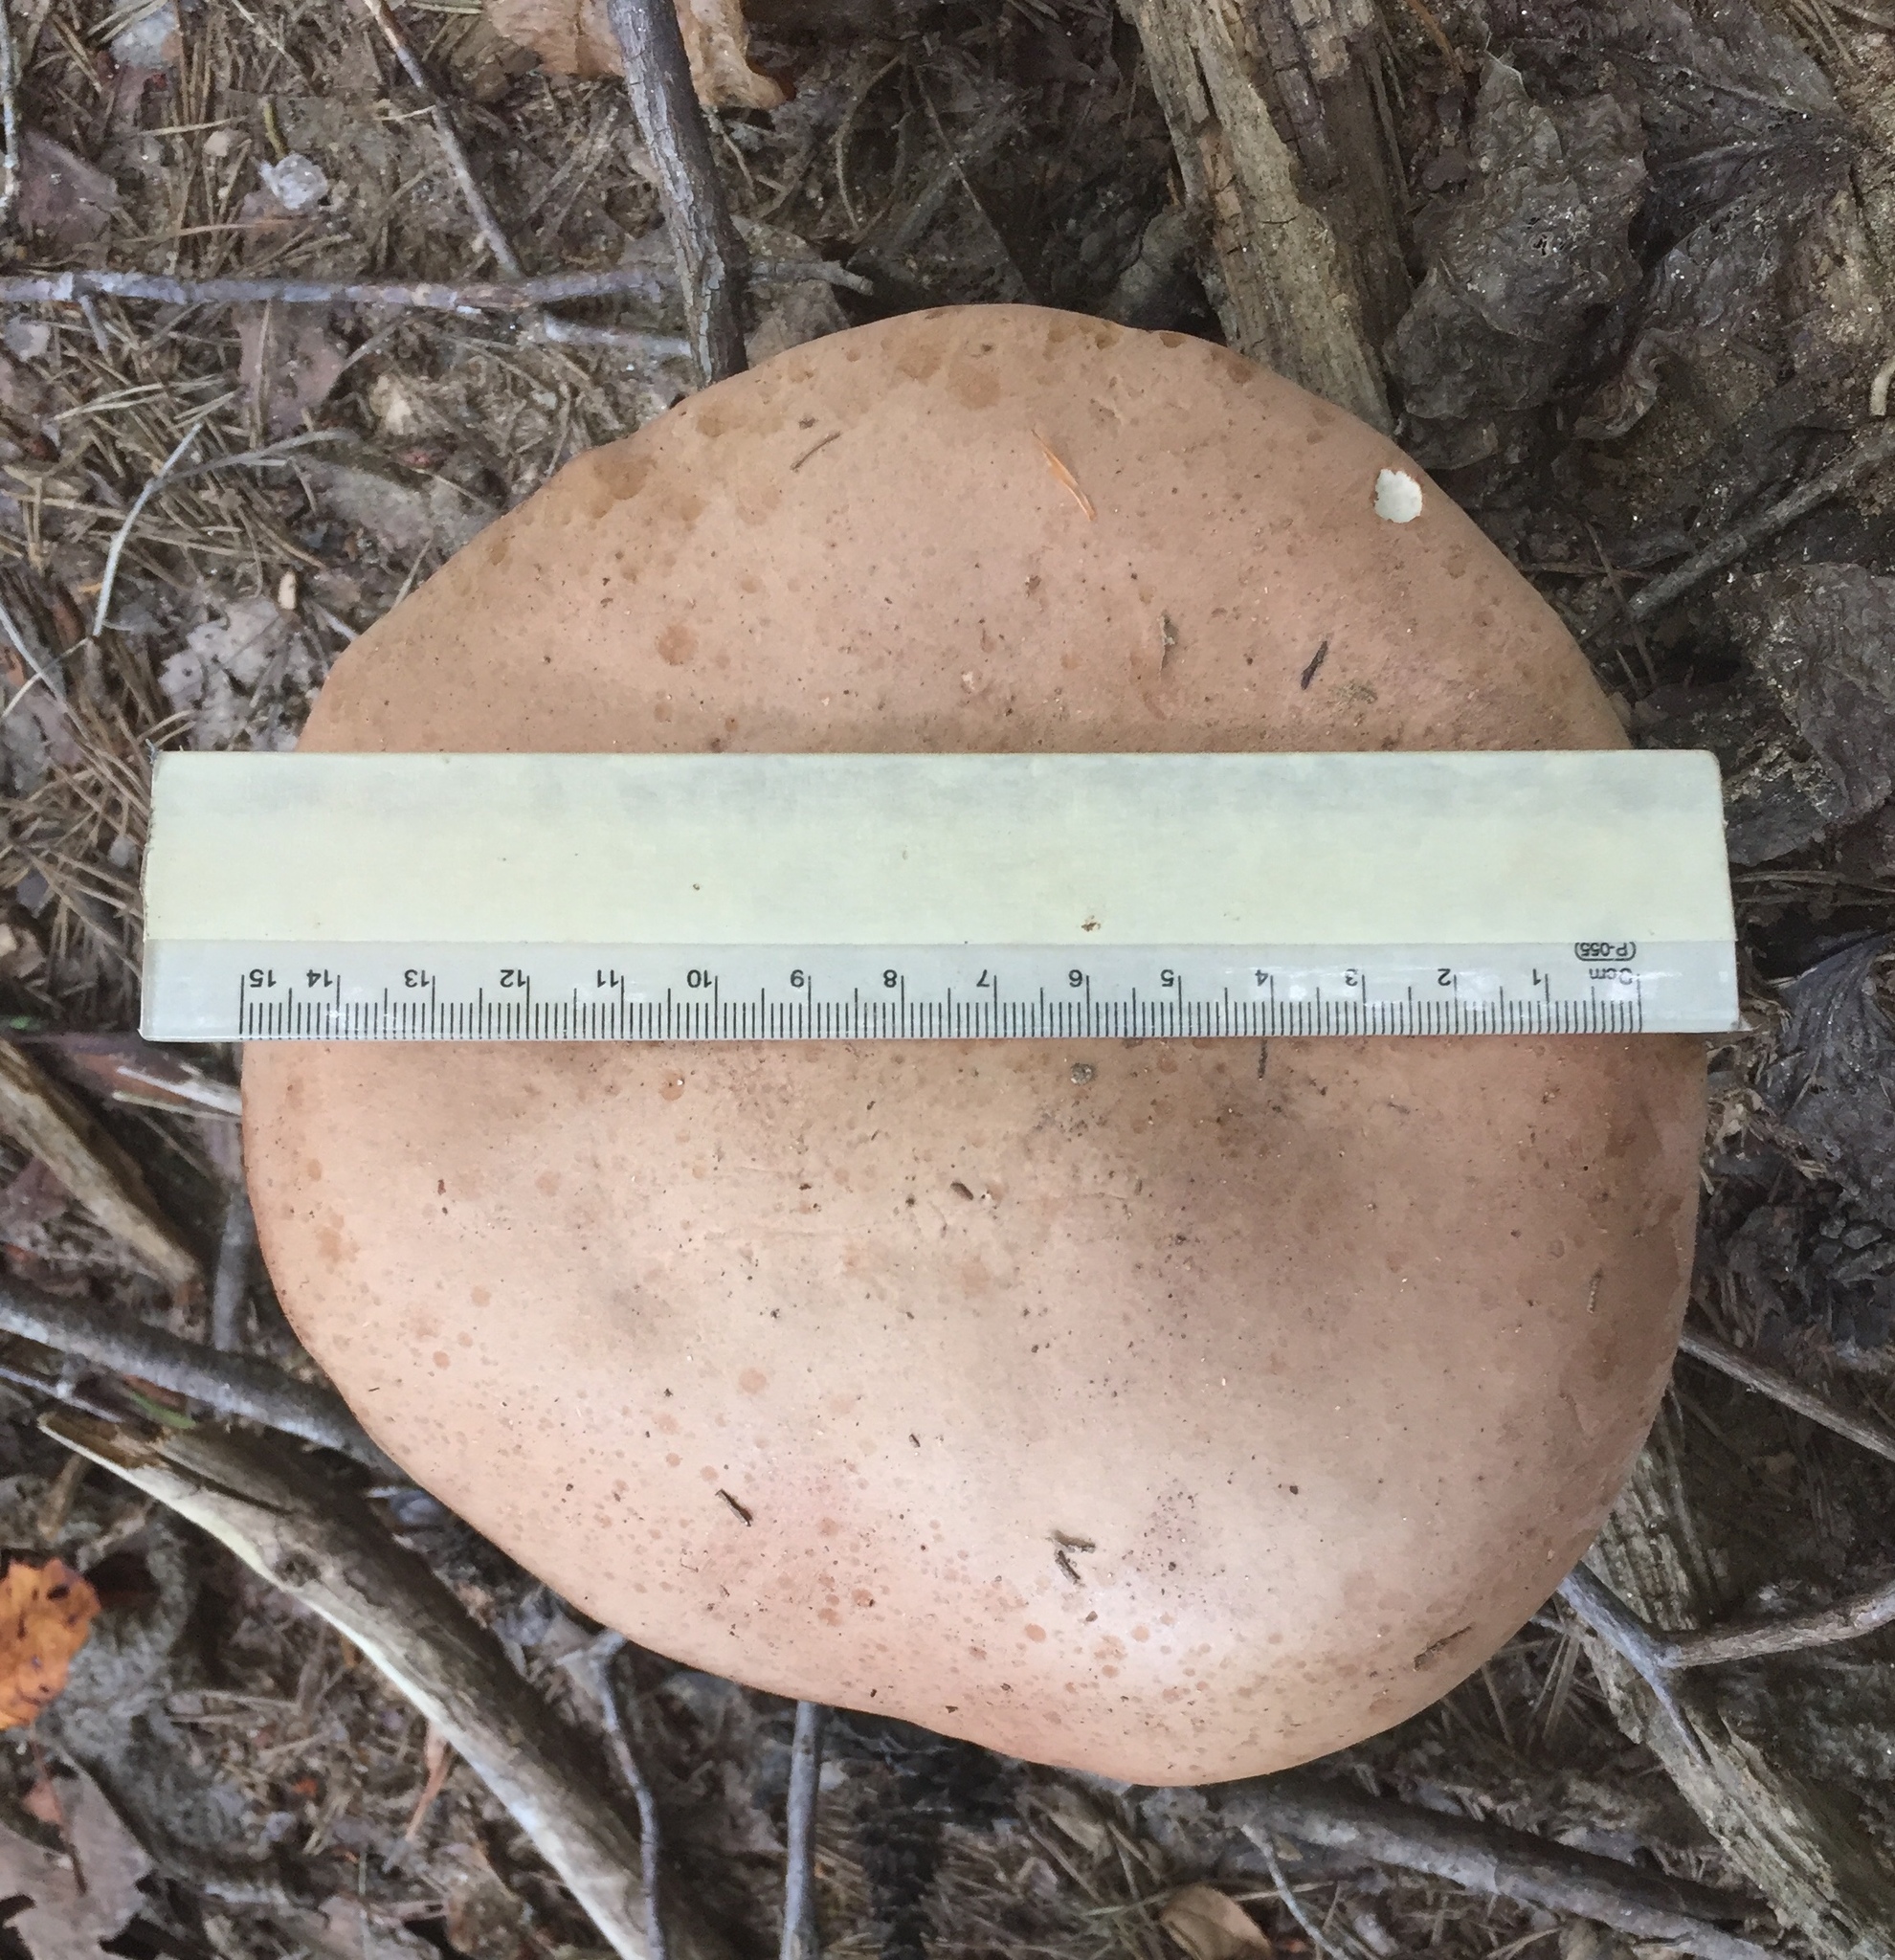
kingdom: Fungi
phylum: Basidiomycota
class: Agaricomycetes
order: Boletales
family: Boletaceae
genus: Tylopilus
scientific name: Tylopilus rubrobrunneus
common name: Reddish brown bitter bolete
